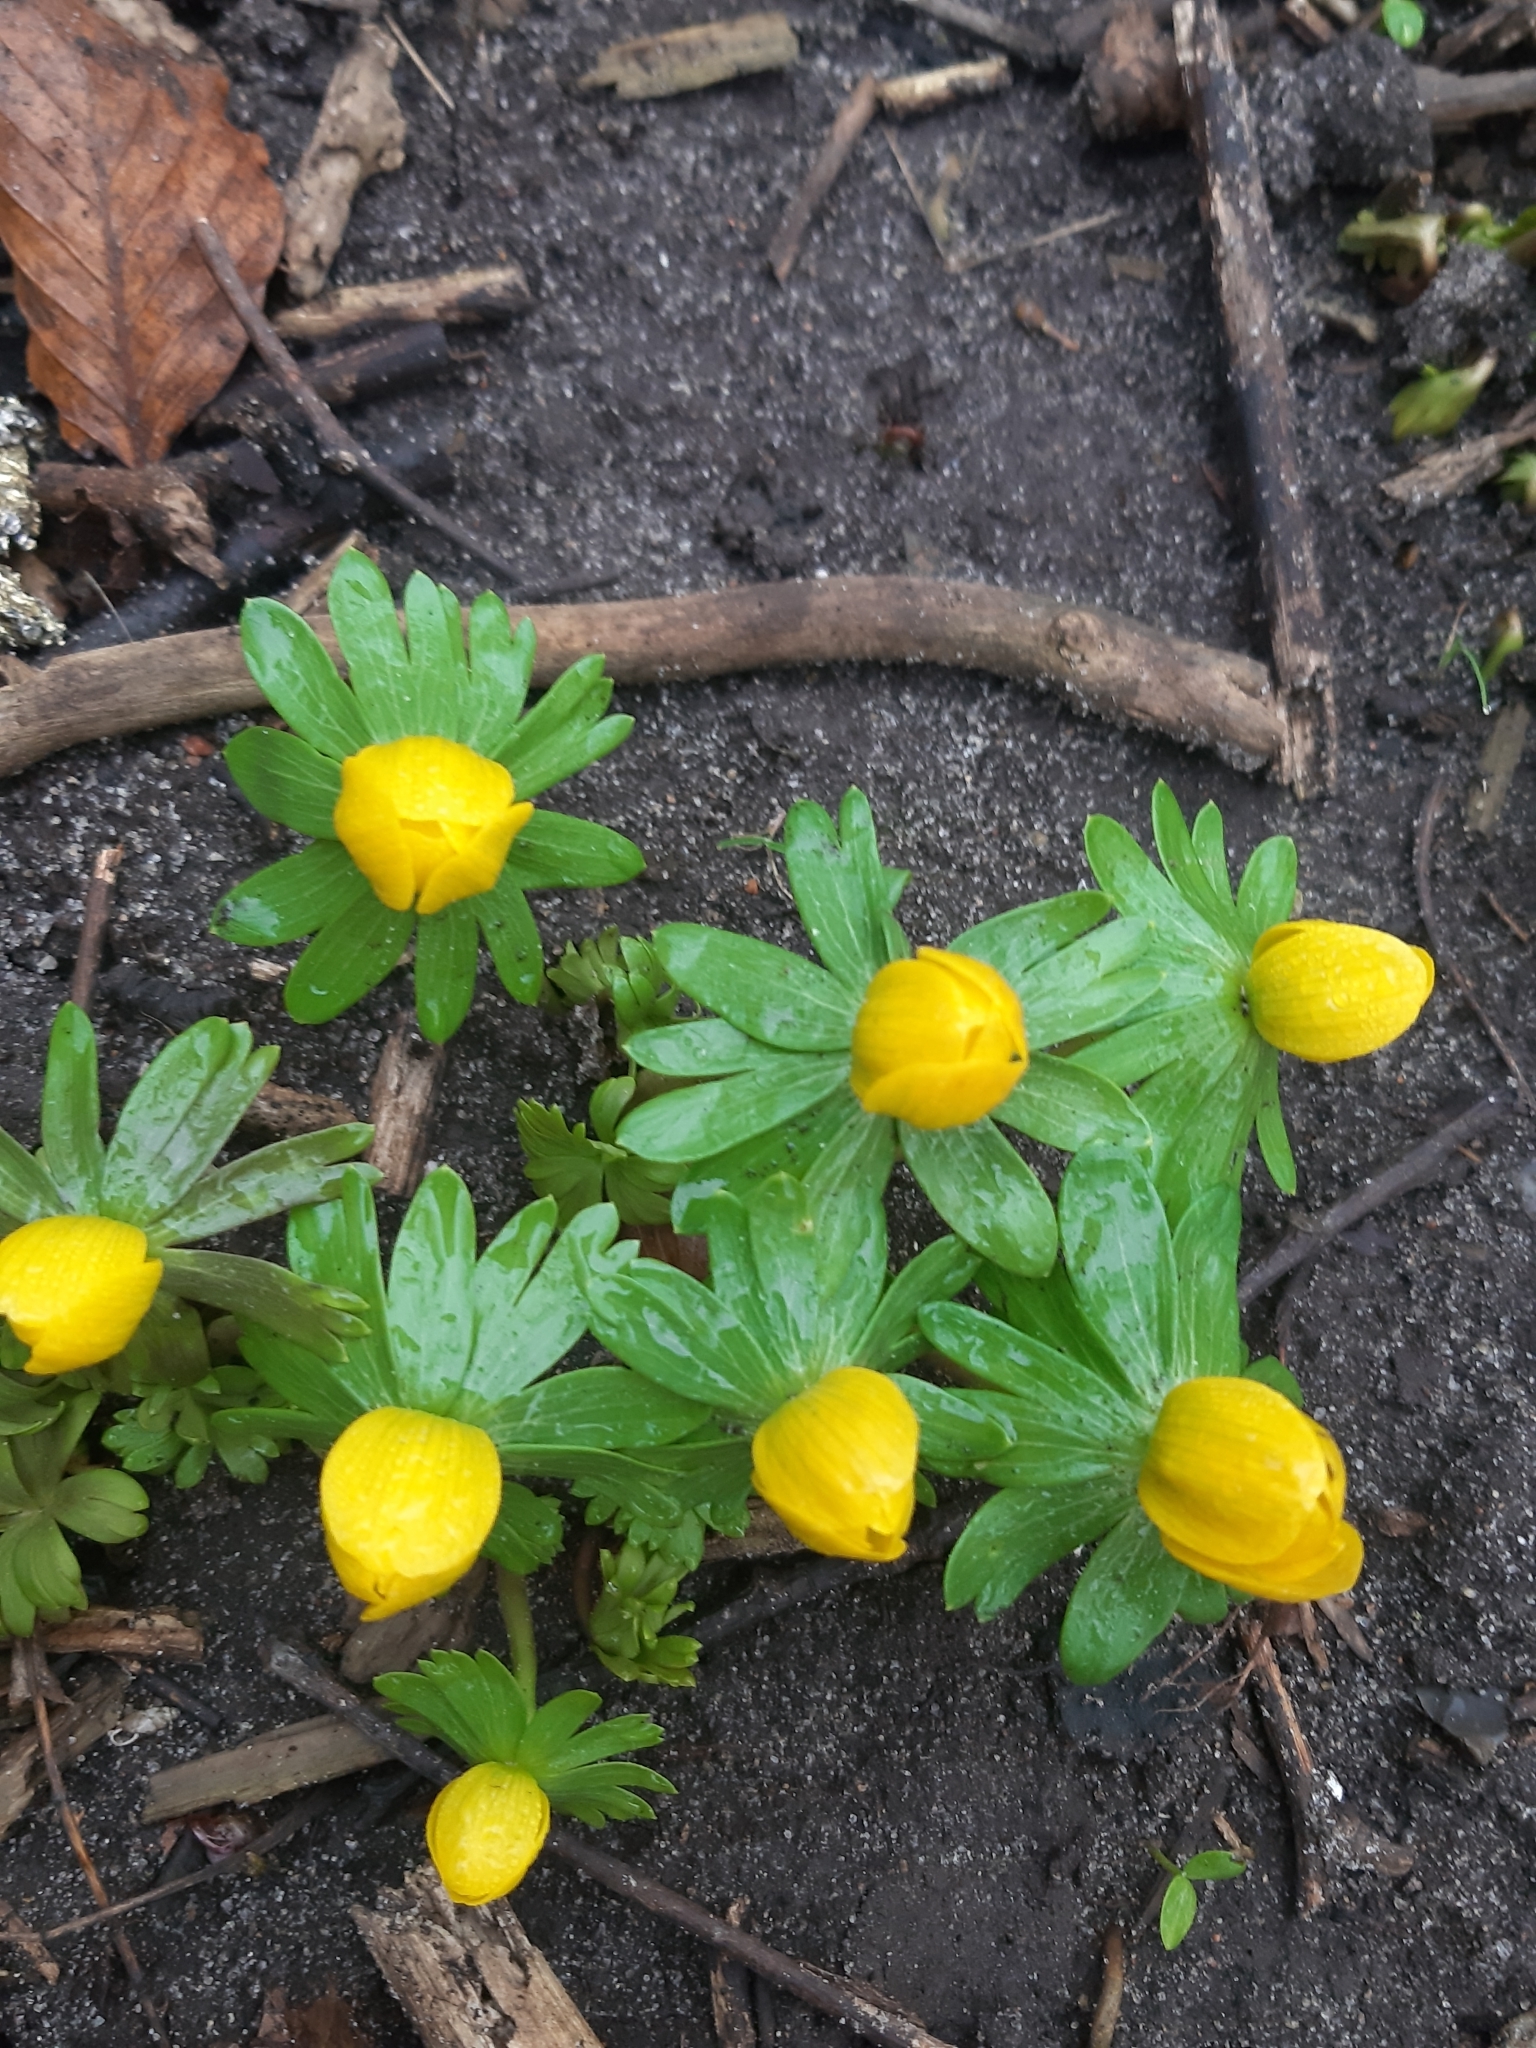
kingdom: Plantae
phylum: Tracheophyta
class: Magnoliopsida
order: Ranunculales
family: Ranunculaceae
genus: Eranthis
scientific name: Eranthis hyemalis
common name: Winter aconite
